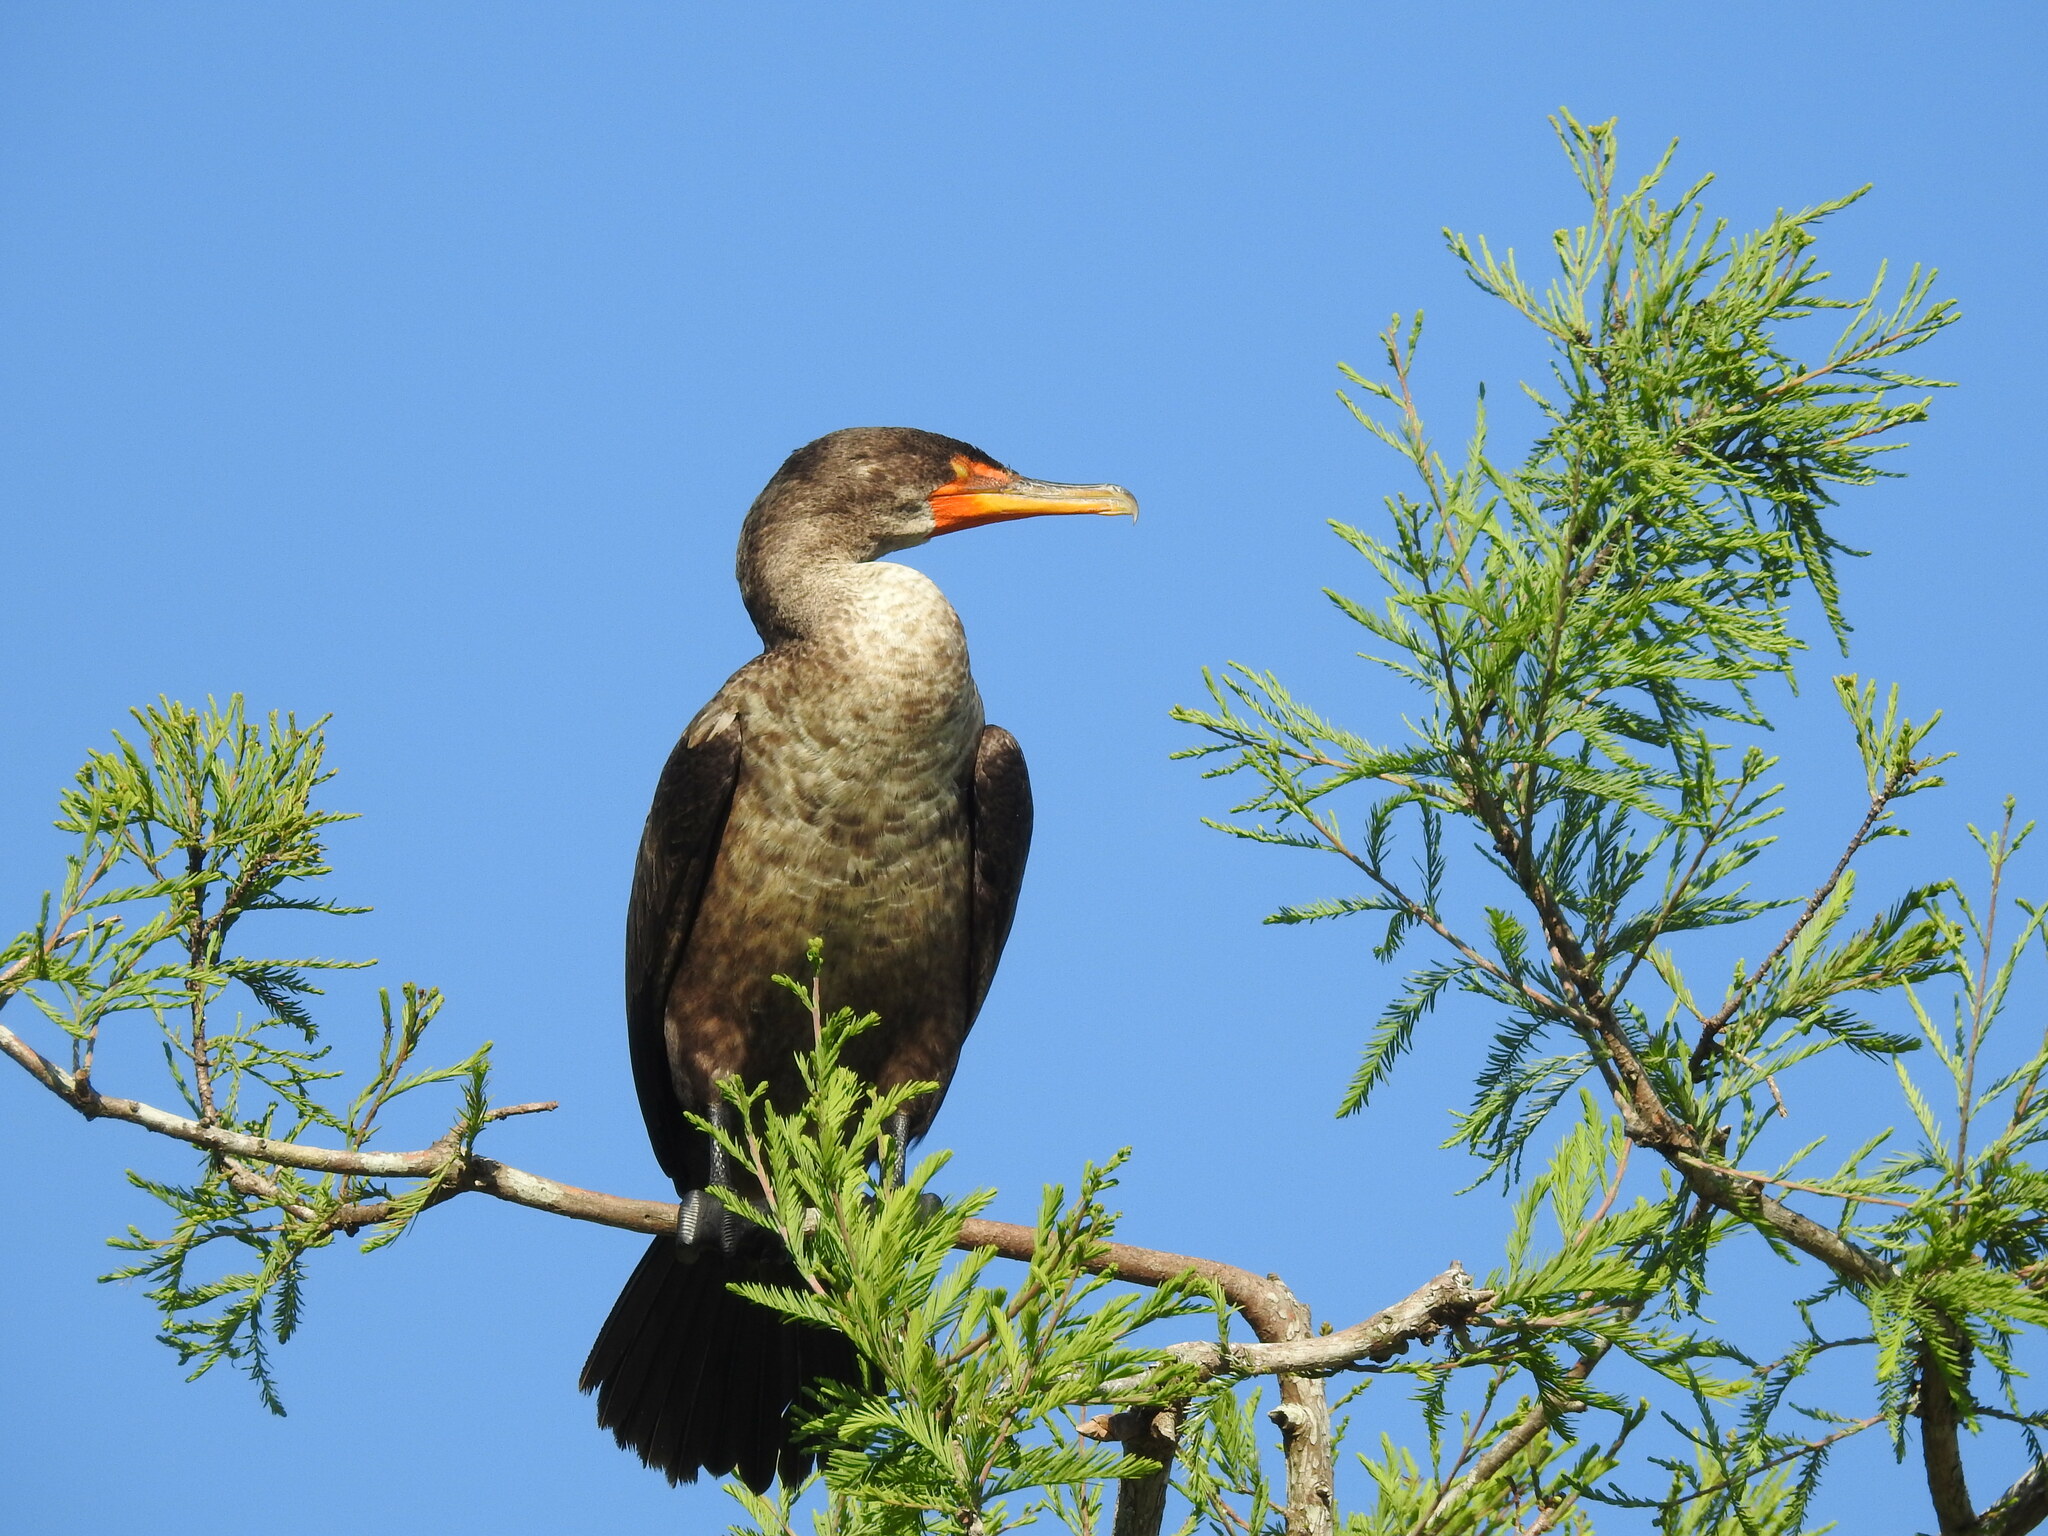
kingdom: Animalia
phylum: Chordata
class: Aves
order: Suliformes
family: Phalacrocoracidae
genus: Phalacrocorax
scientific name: Phalacrocorax auritus
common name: Double-crested cormorant
